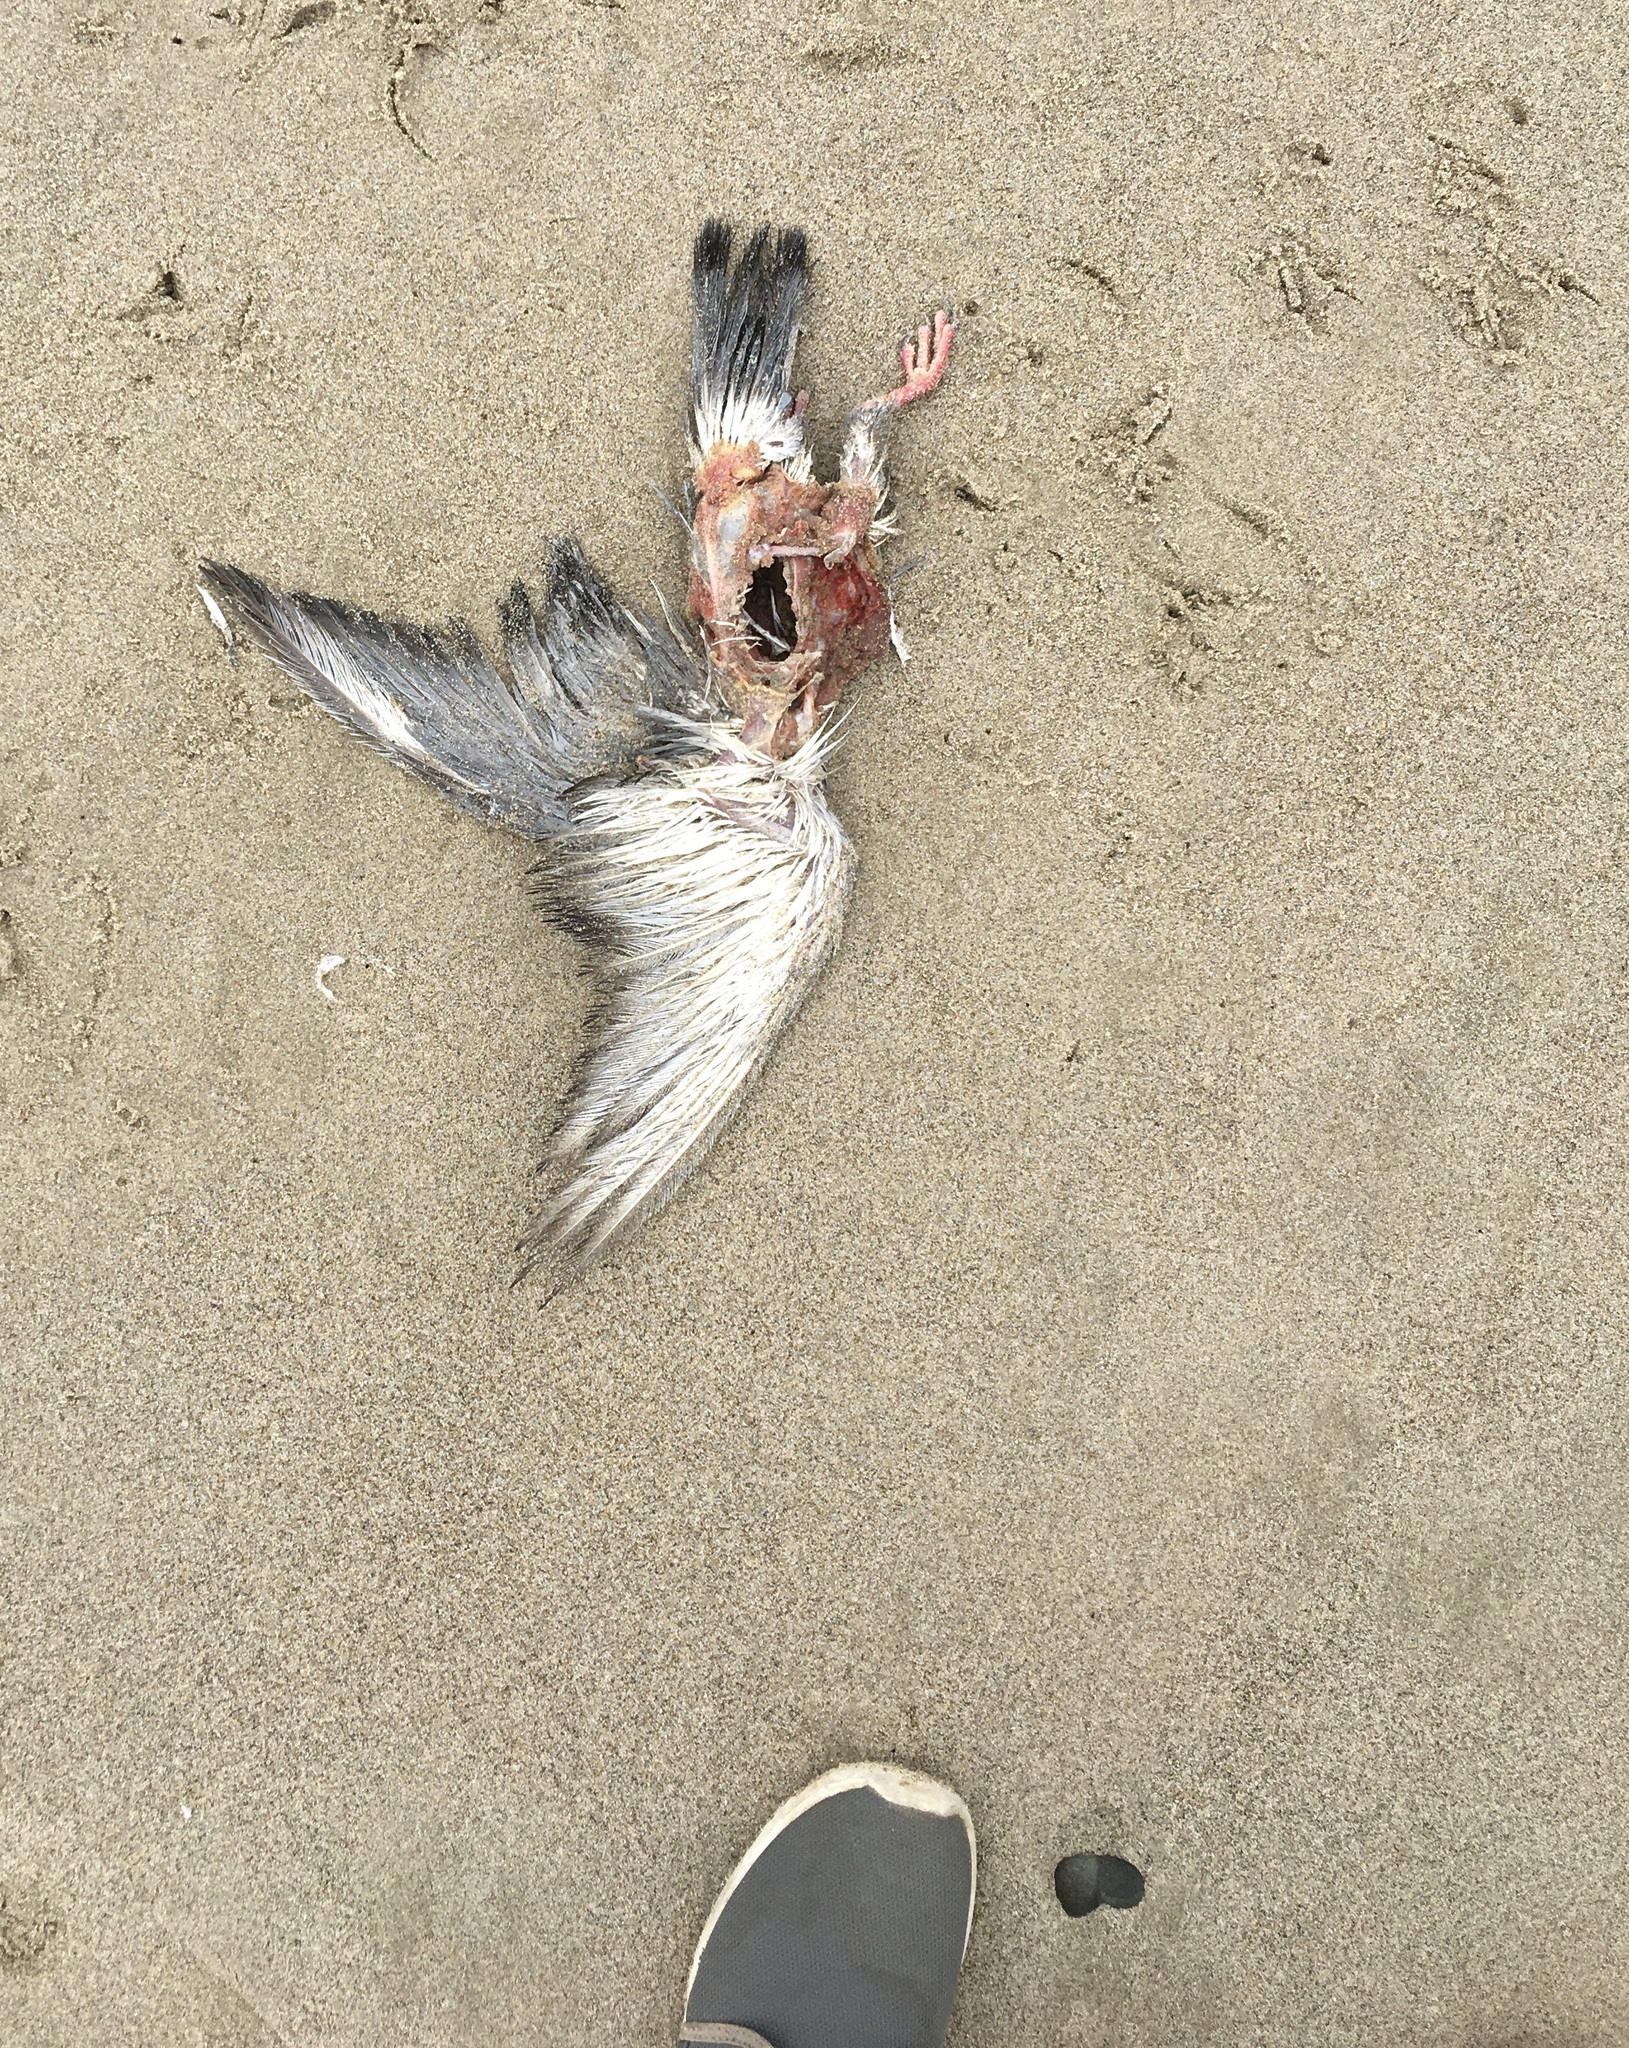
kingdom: Animalia
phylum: Chordata
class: Aves
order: Columbiformes
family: Columbidae
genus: Columba
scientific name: Columba livia
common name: Rock pigeon
